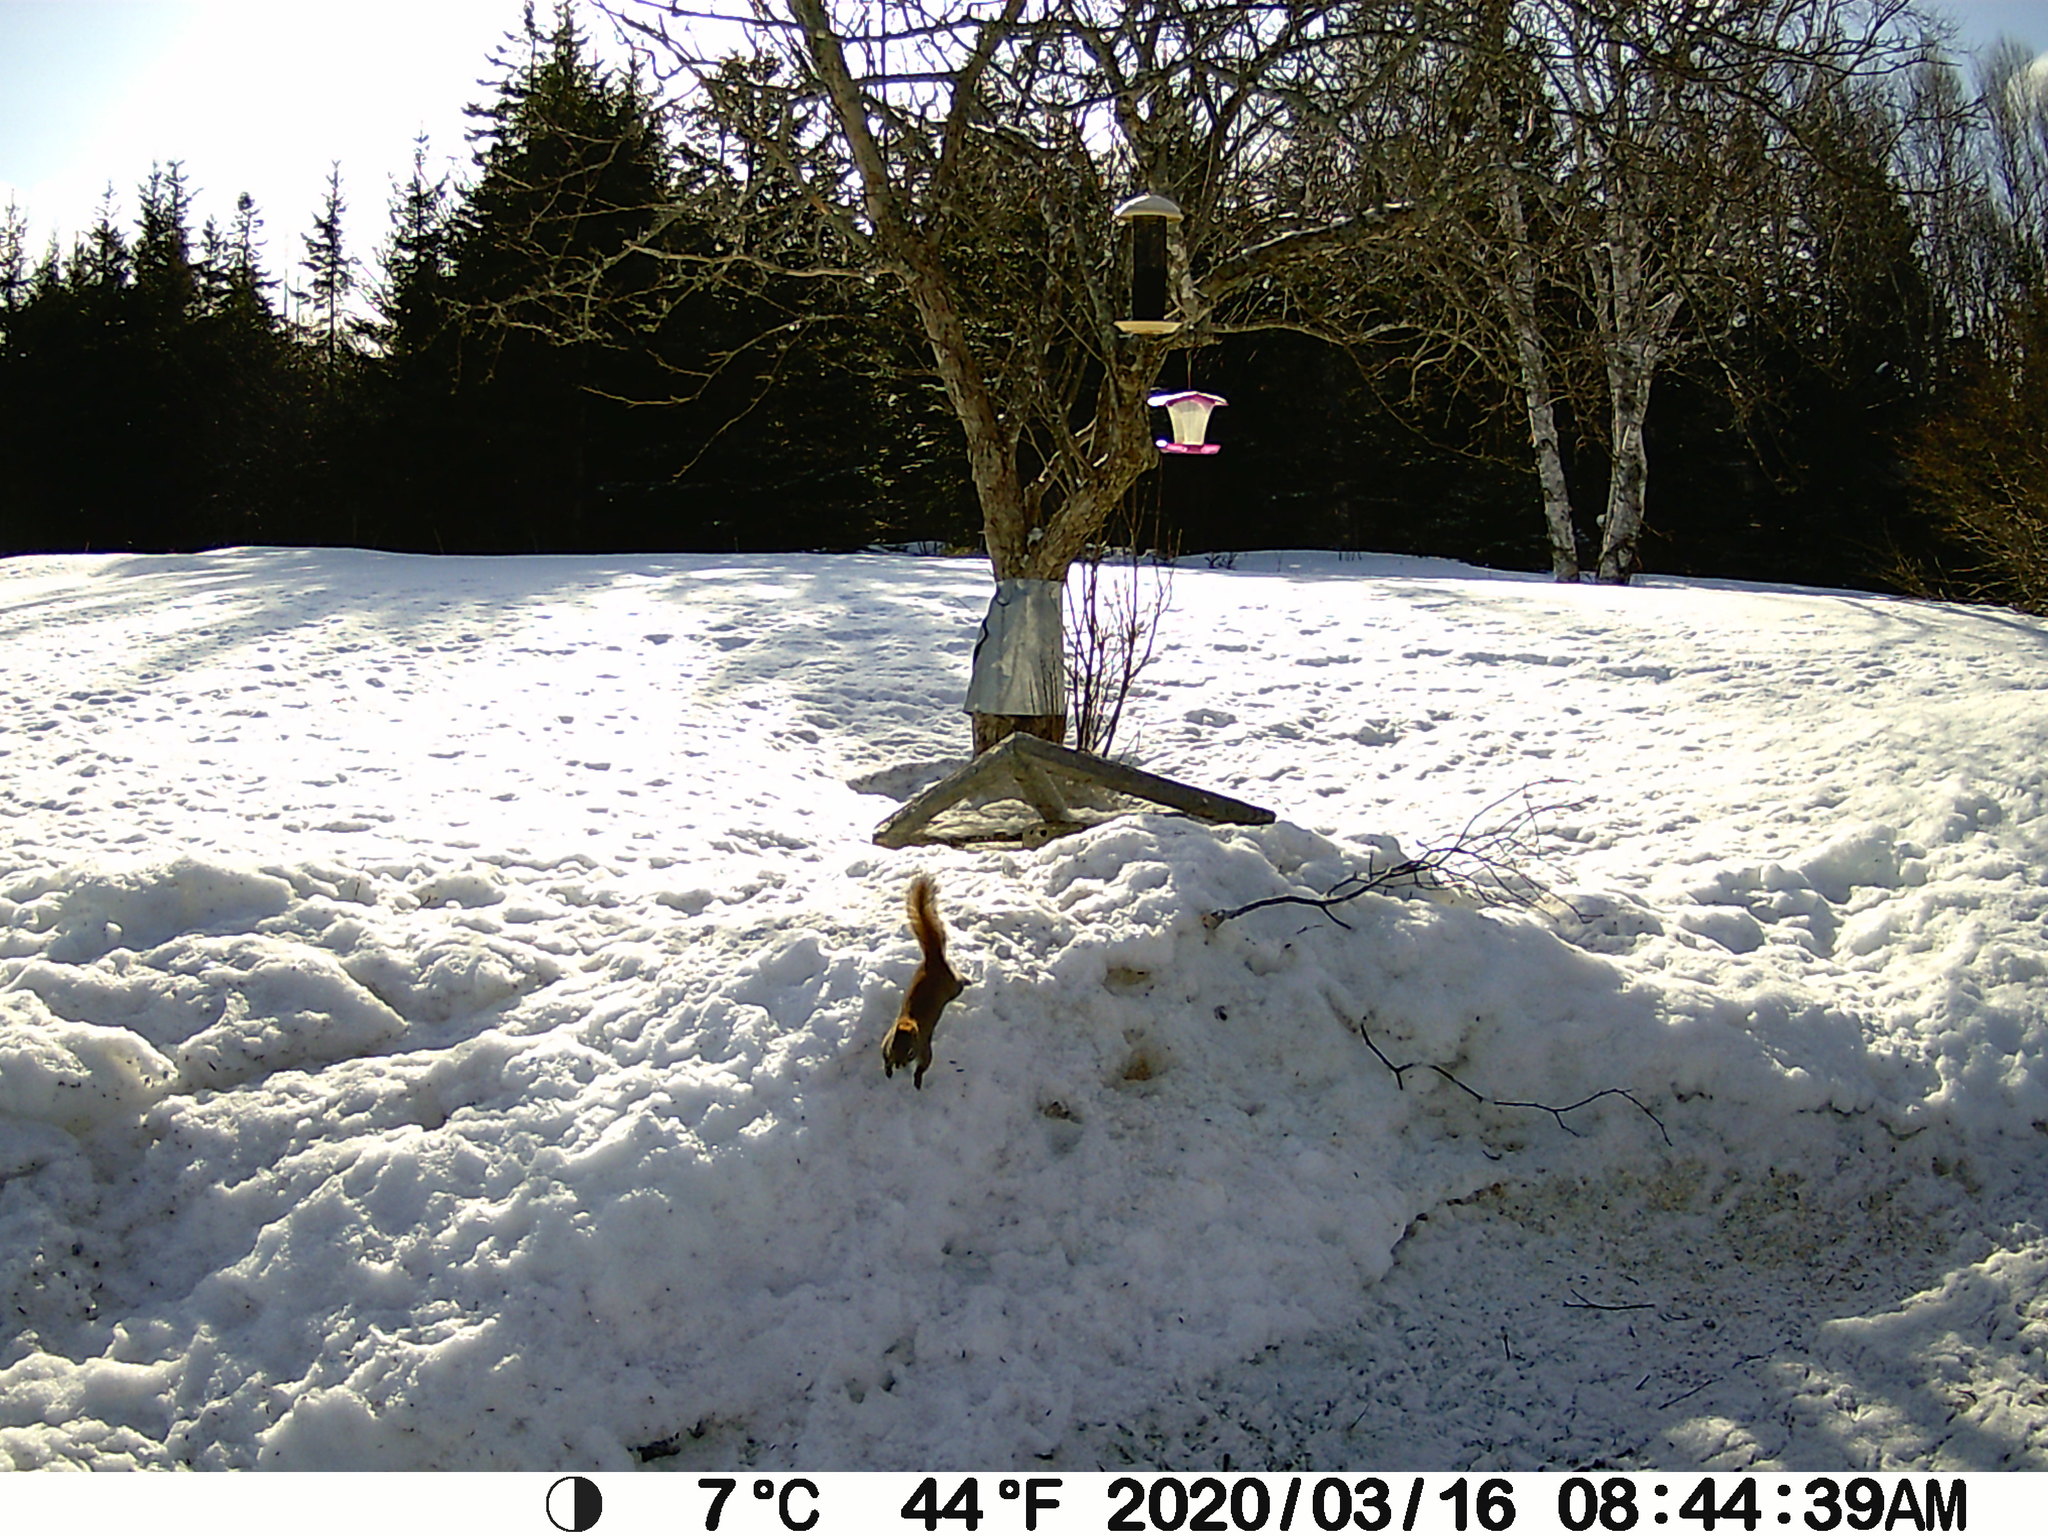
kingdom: Animalia
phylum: Chordata
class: Mammalia
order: Rodentia
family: Sciuridae
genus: Tamiasciurus
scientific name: Tamiasciurus hudsonicus
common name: Red squirrel
